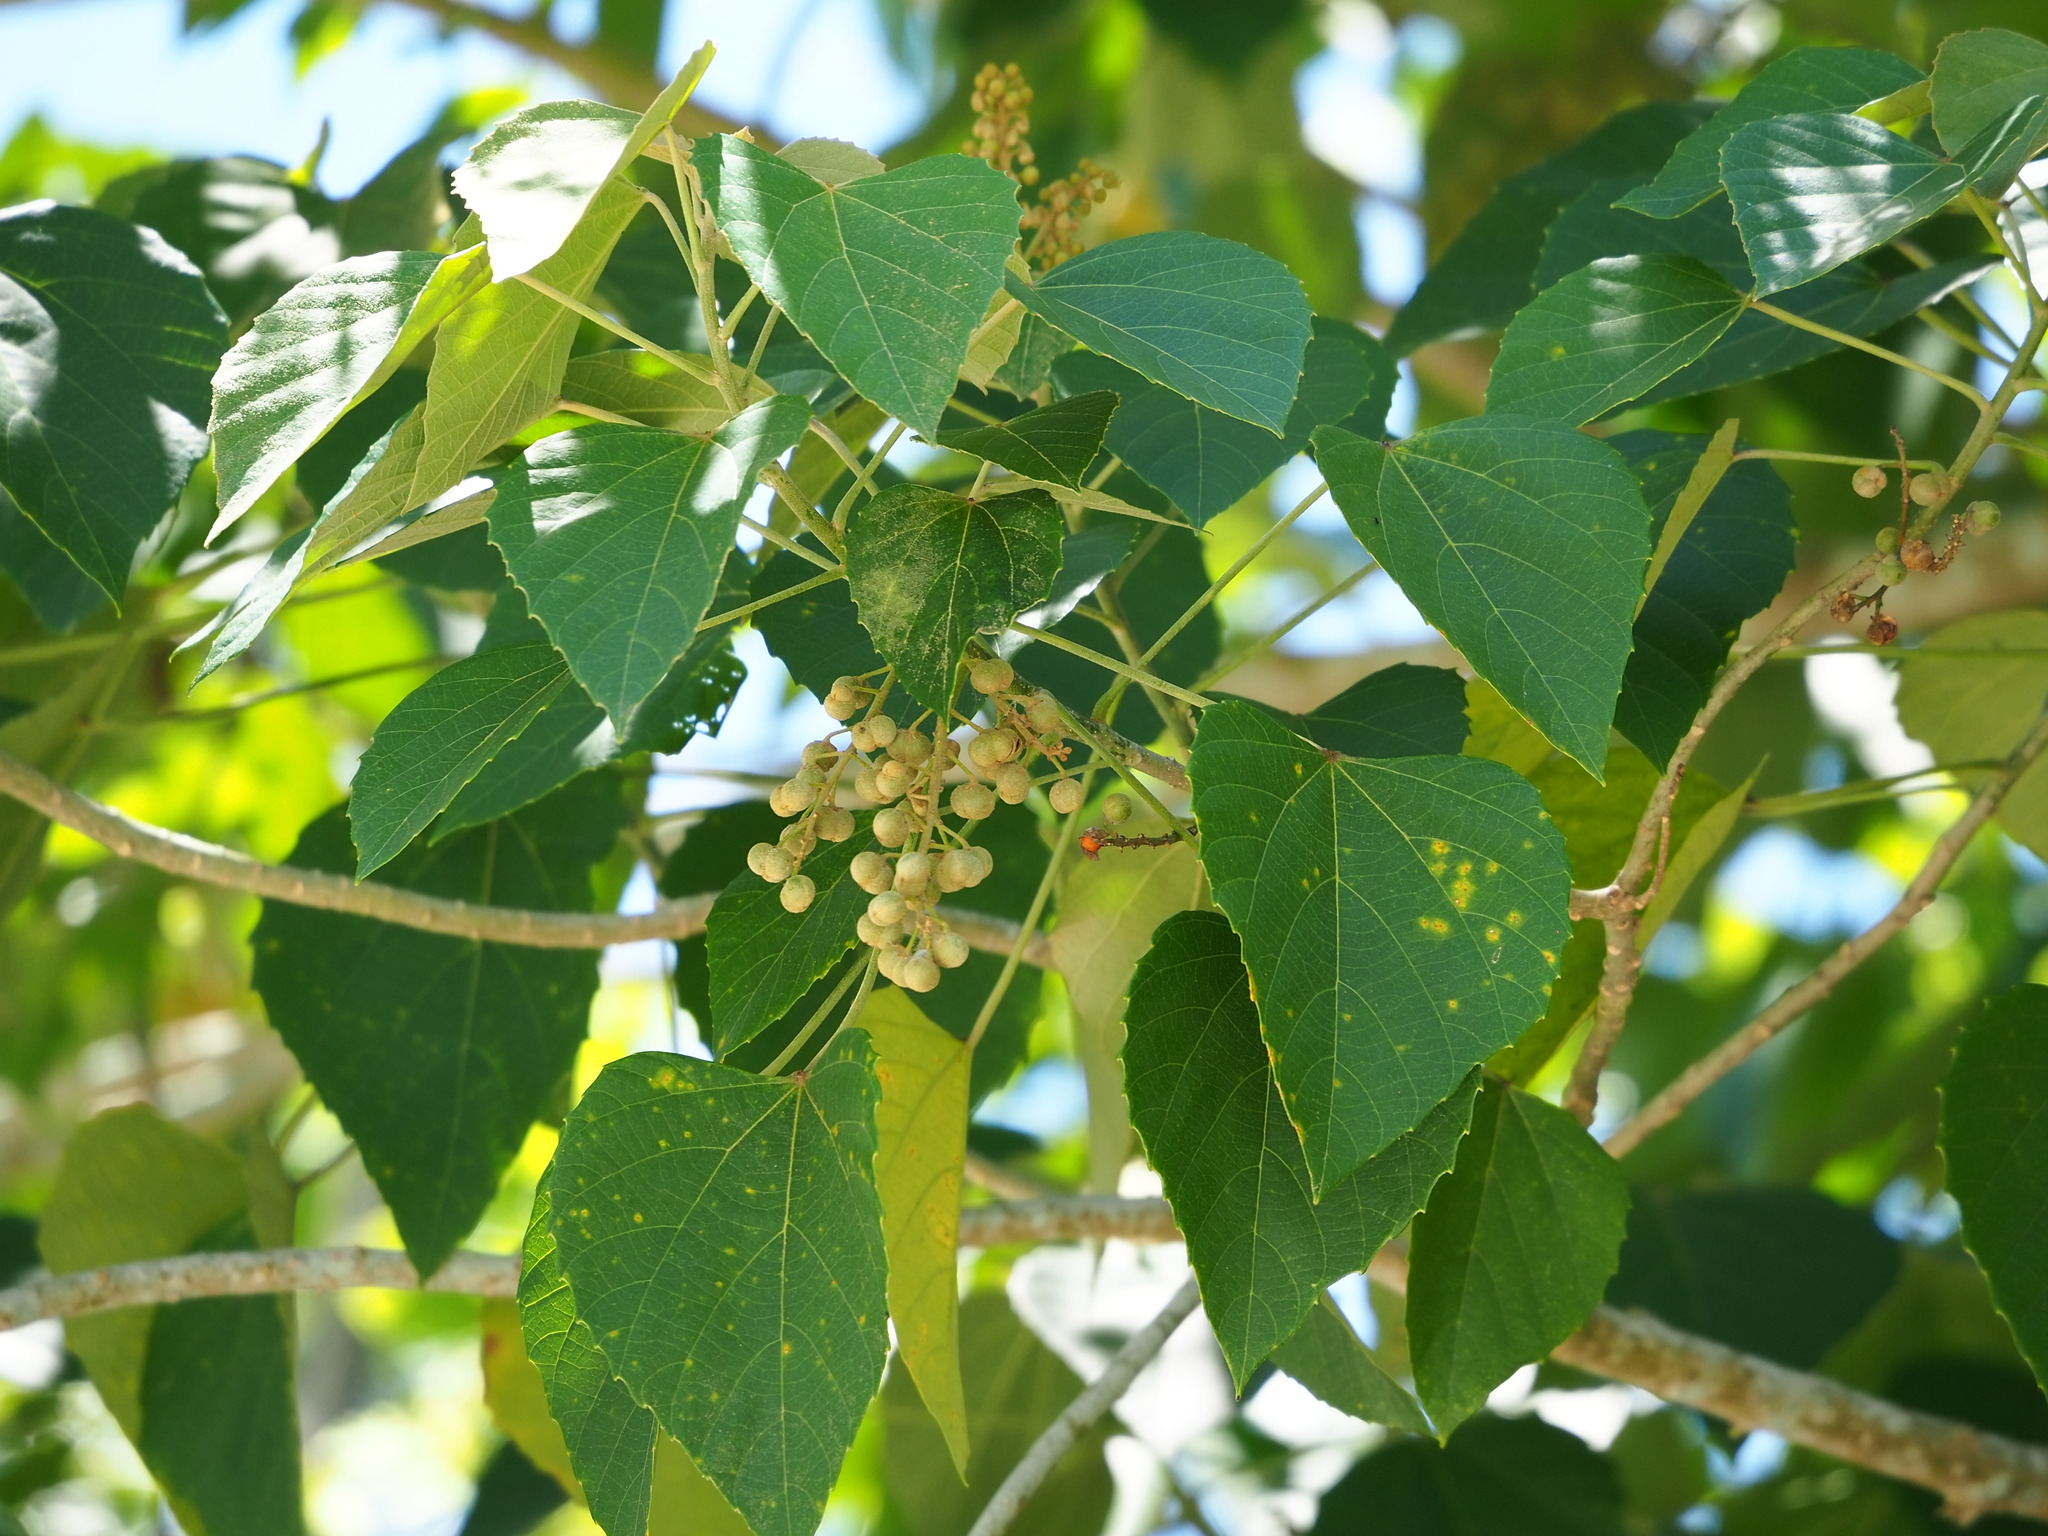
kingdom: Plantae
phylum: Tracheophyta
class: Magnoliopsida
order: Malpighiales
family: Euphorbiaceae
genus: Melanolepis
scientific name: Melanolepis multiglandulosa
